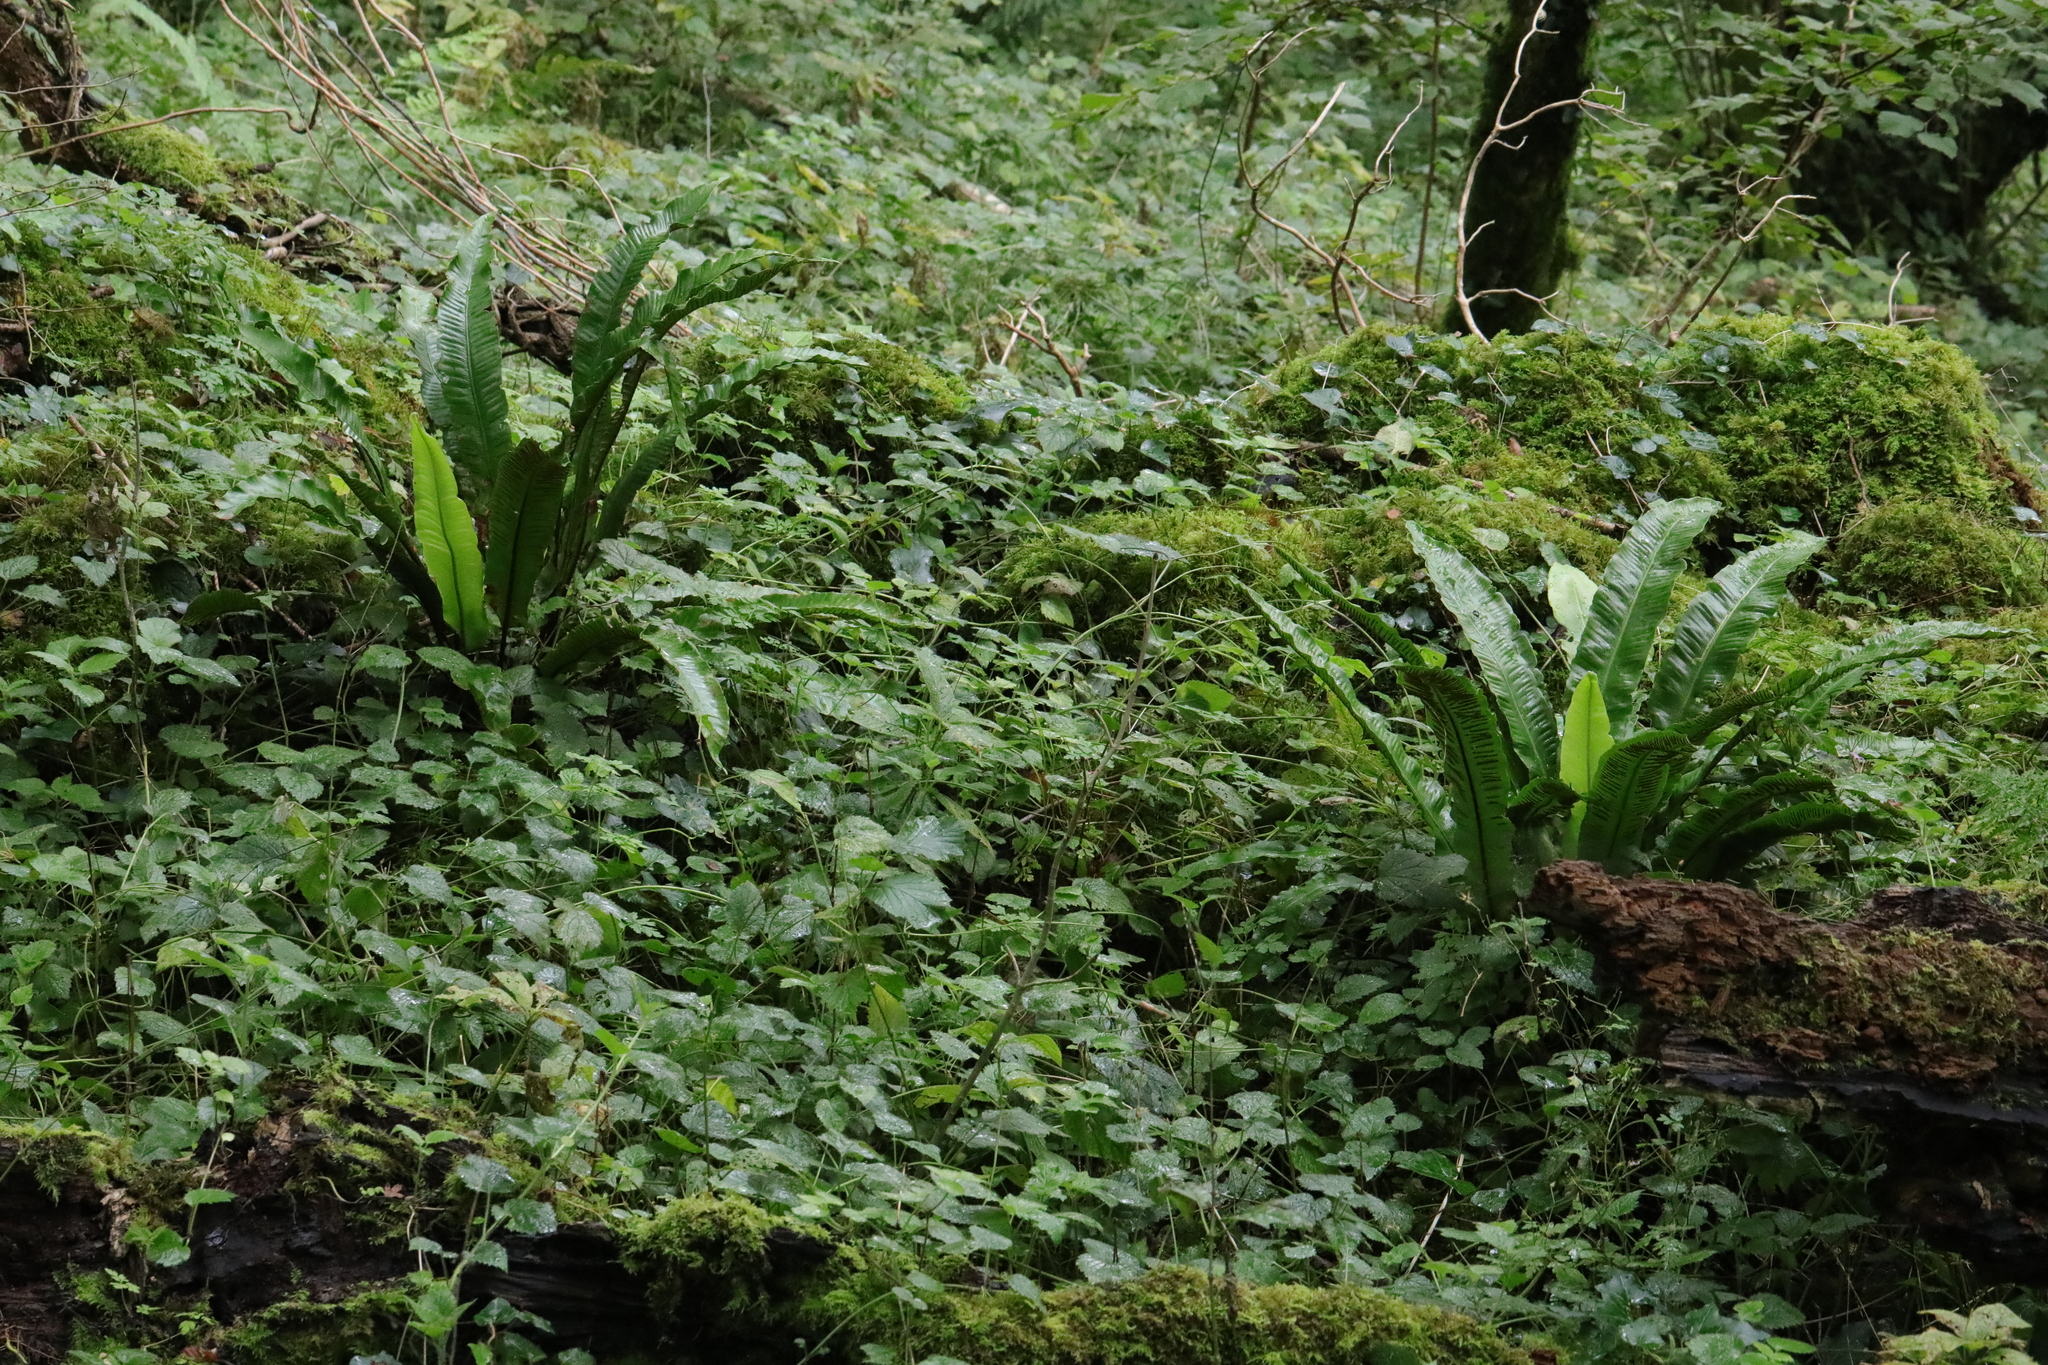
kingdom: Plantae
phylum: Tracheophyta
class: Polypodiopsida
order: Polypodiales
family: Aspleniaceae
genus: Asplenium
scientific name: Asplenium scolopendrium
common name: Hart's-tongue fern
